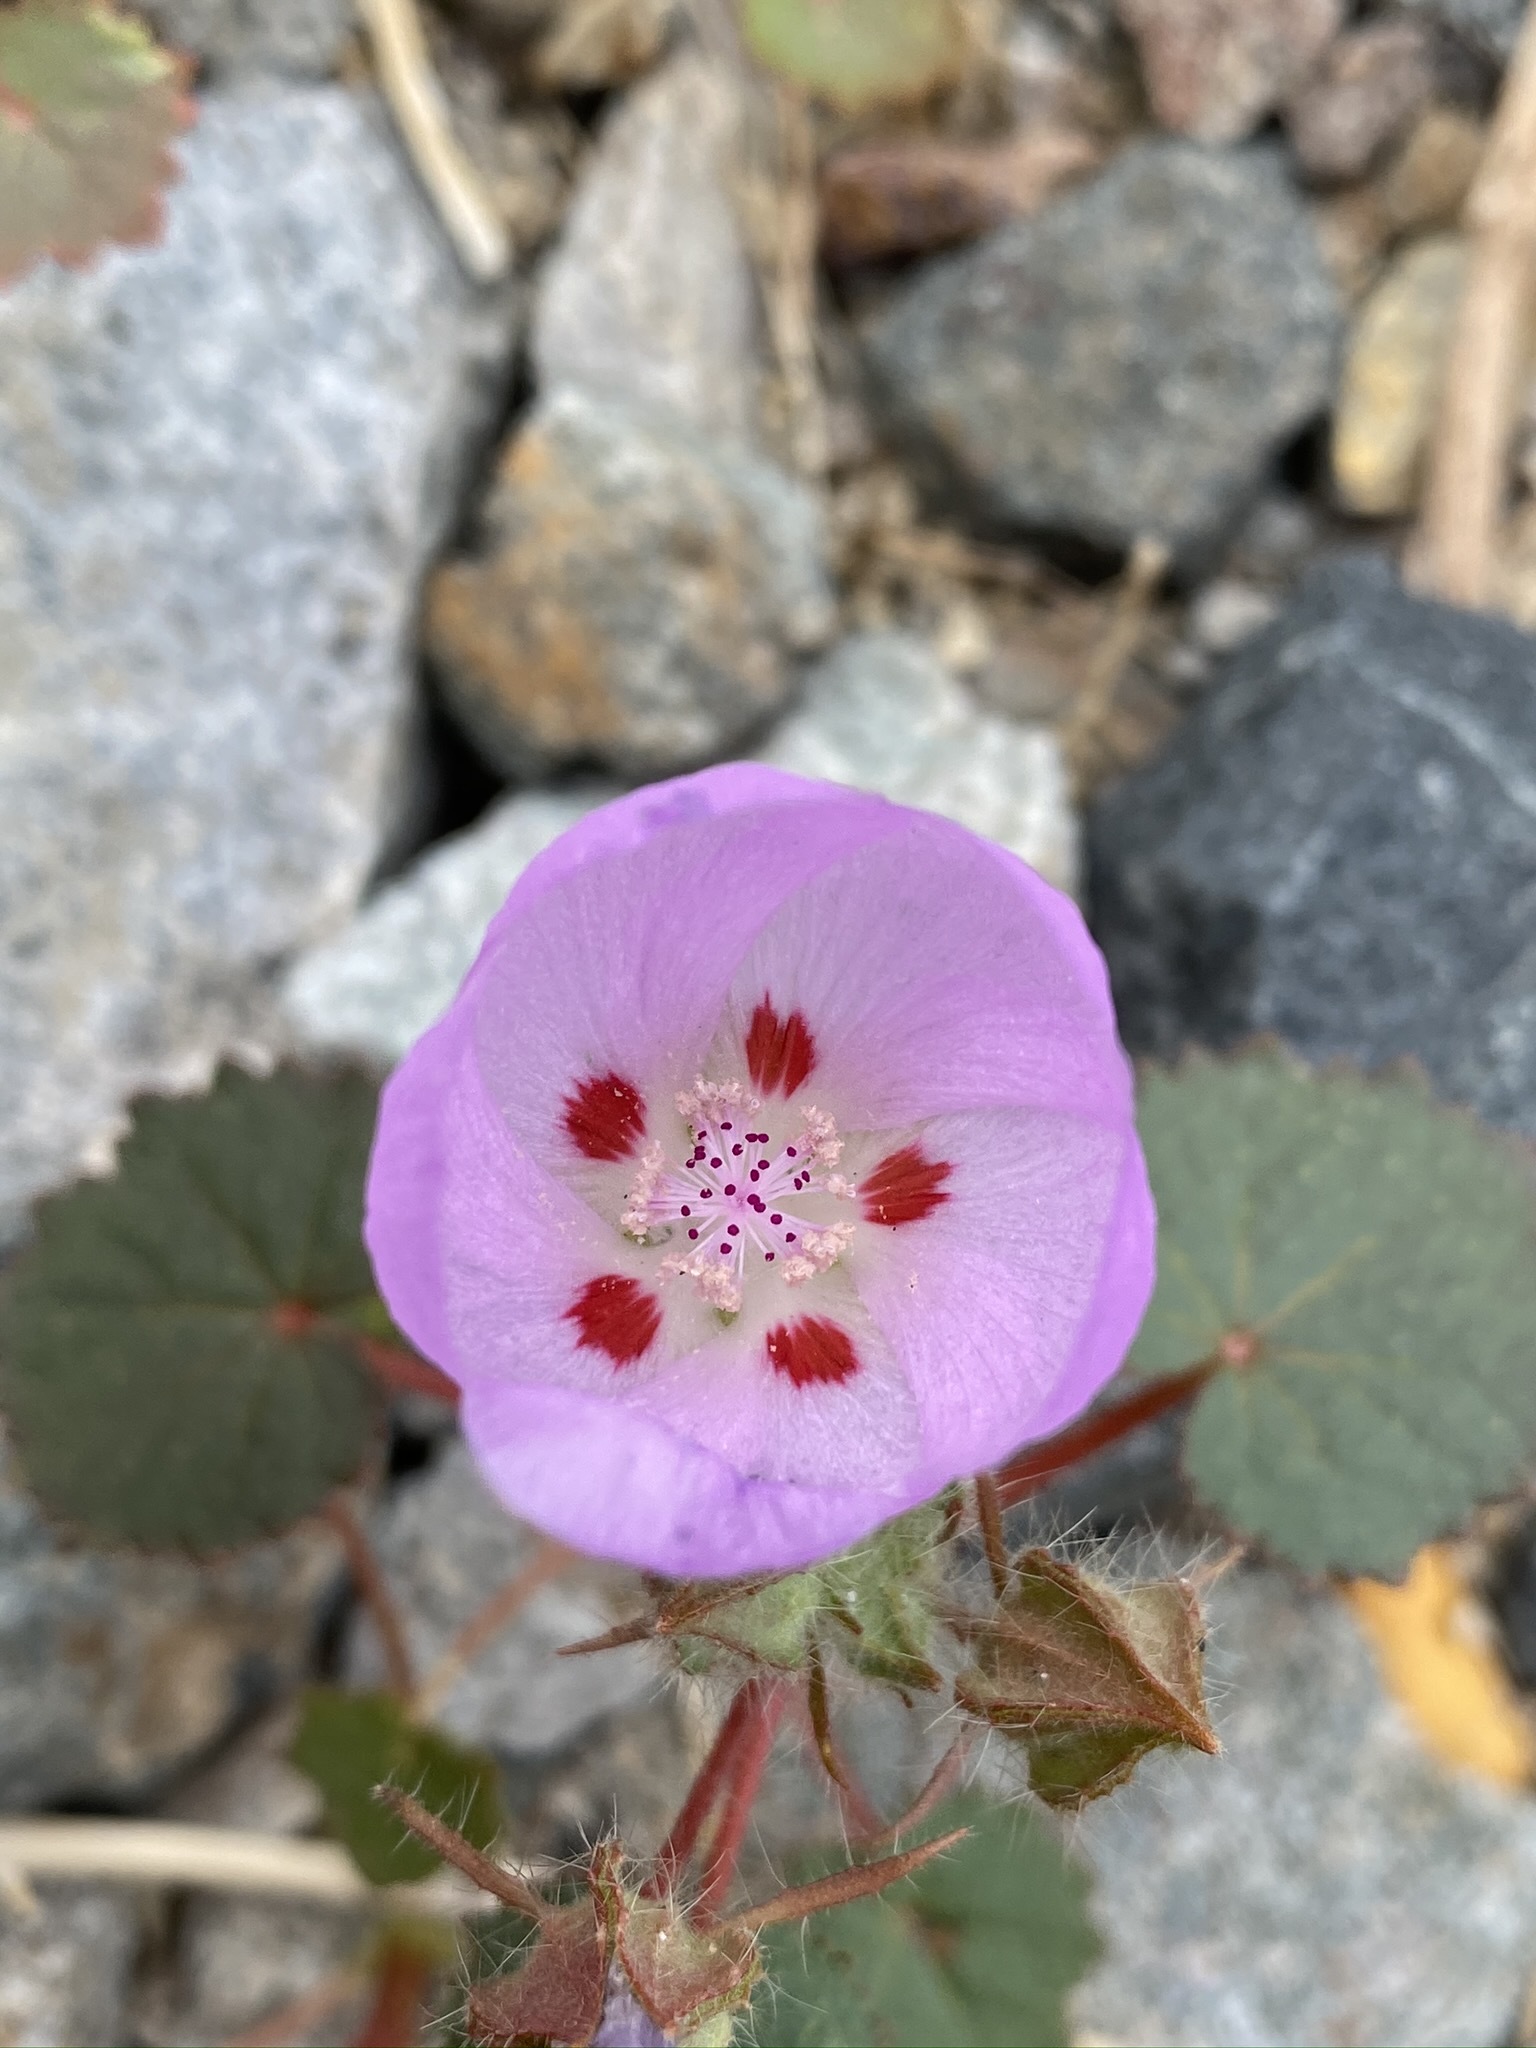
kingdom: Plantae
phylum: Tracheophyta
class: Magnoliopsida
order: Malvales
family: Malvaceae
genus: Eremalche
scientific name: Eremalche rotundifolia
